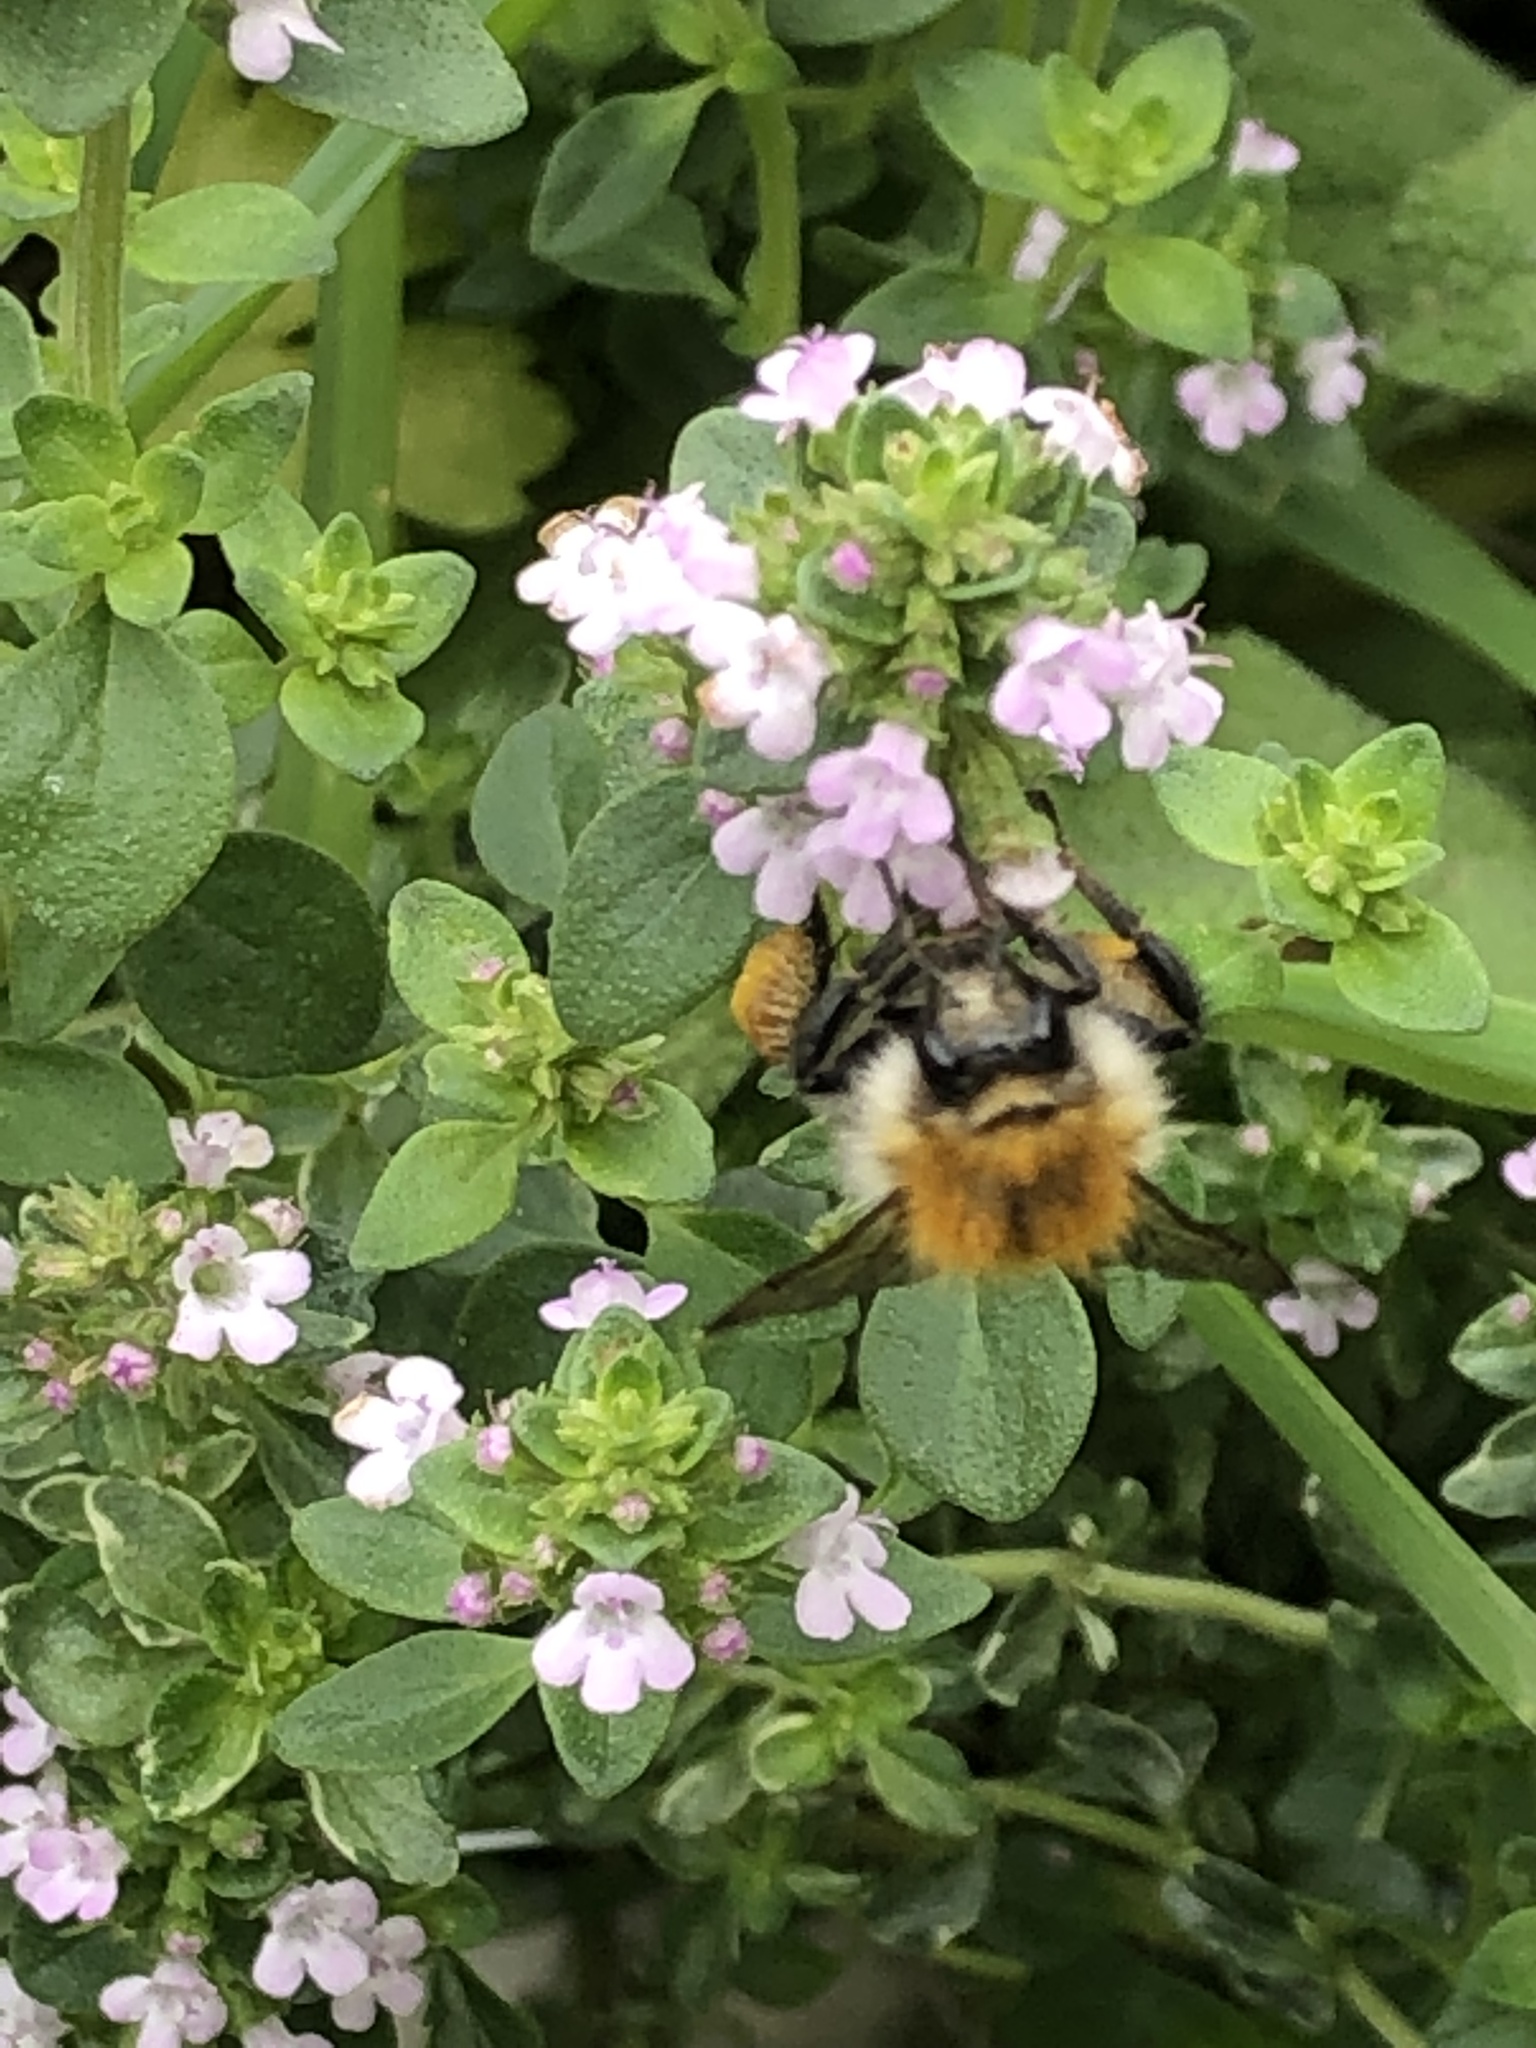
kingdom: Animalia
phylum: Arthropoda
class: Insecta
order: Hymenoptera
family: Apidae
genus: Bombus
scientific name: Bombus pascuorum
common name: Common carder bee
